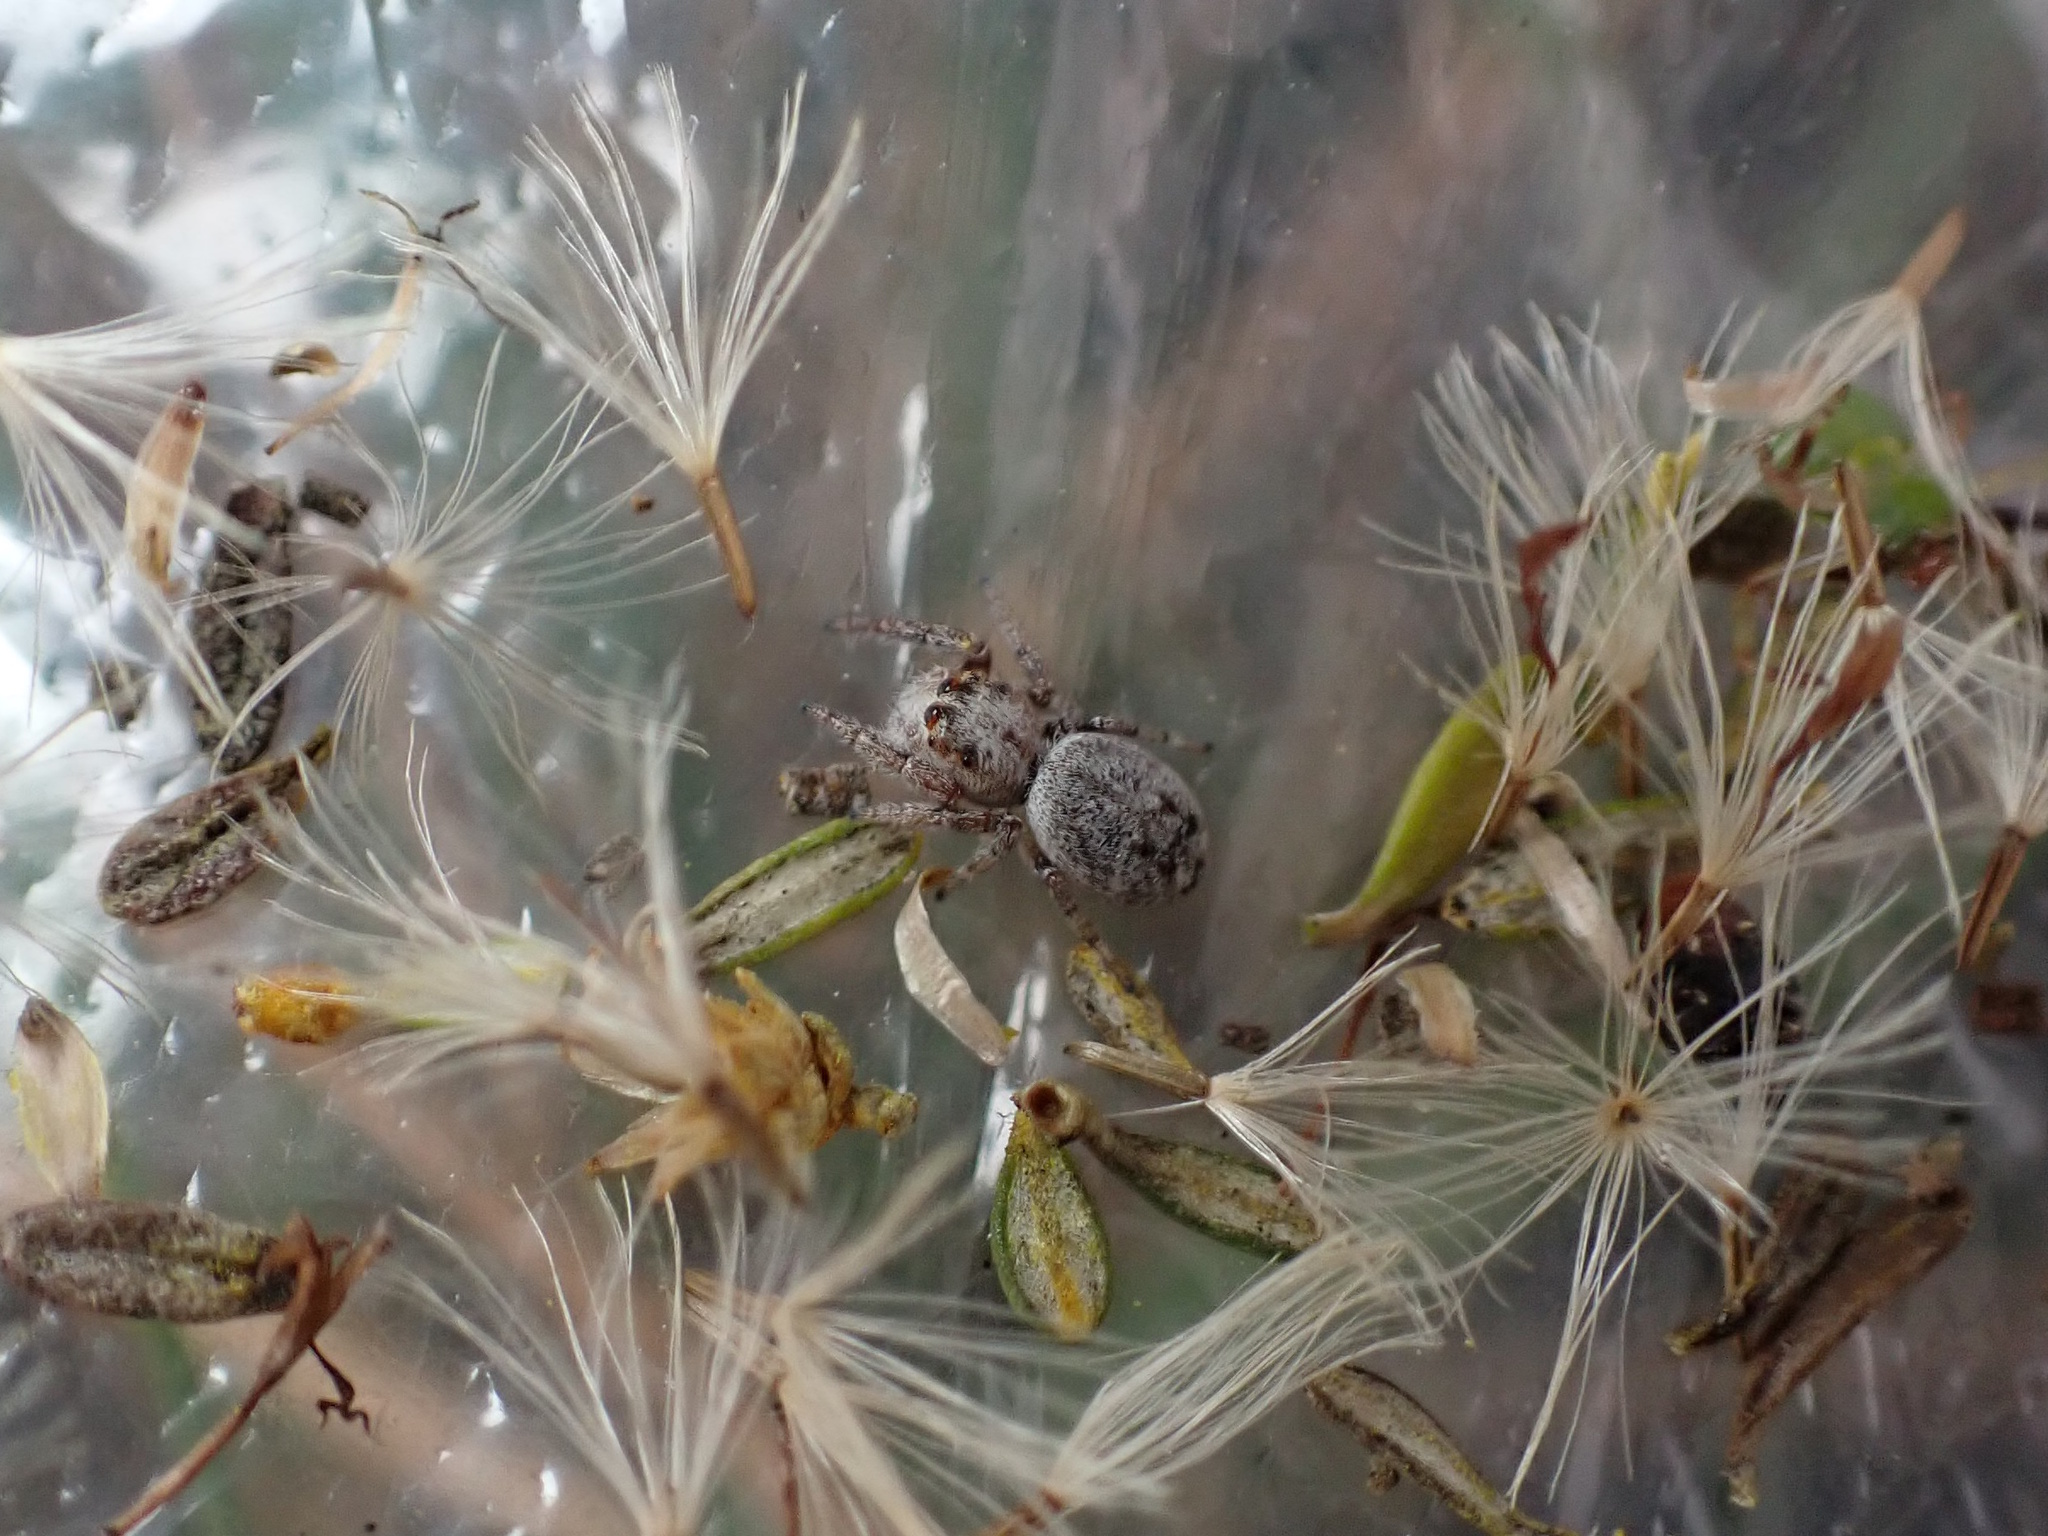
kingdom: Animalia
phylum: Arthropoda
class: Arachnida
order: Araneae
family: Salticidae
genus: Opisthoncus
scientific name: Opisthoncus polyphemus
